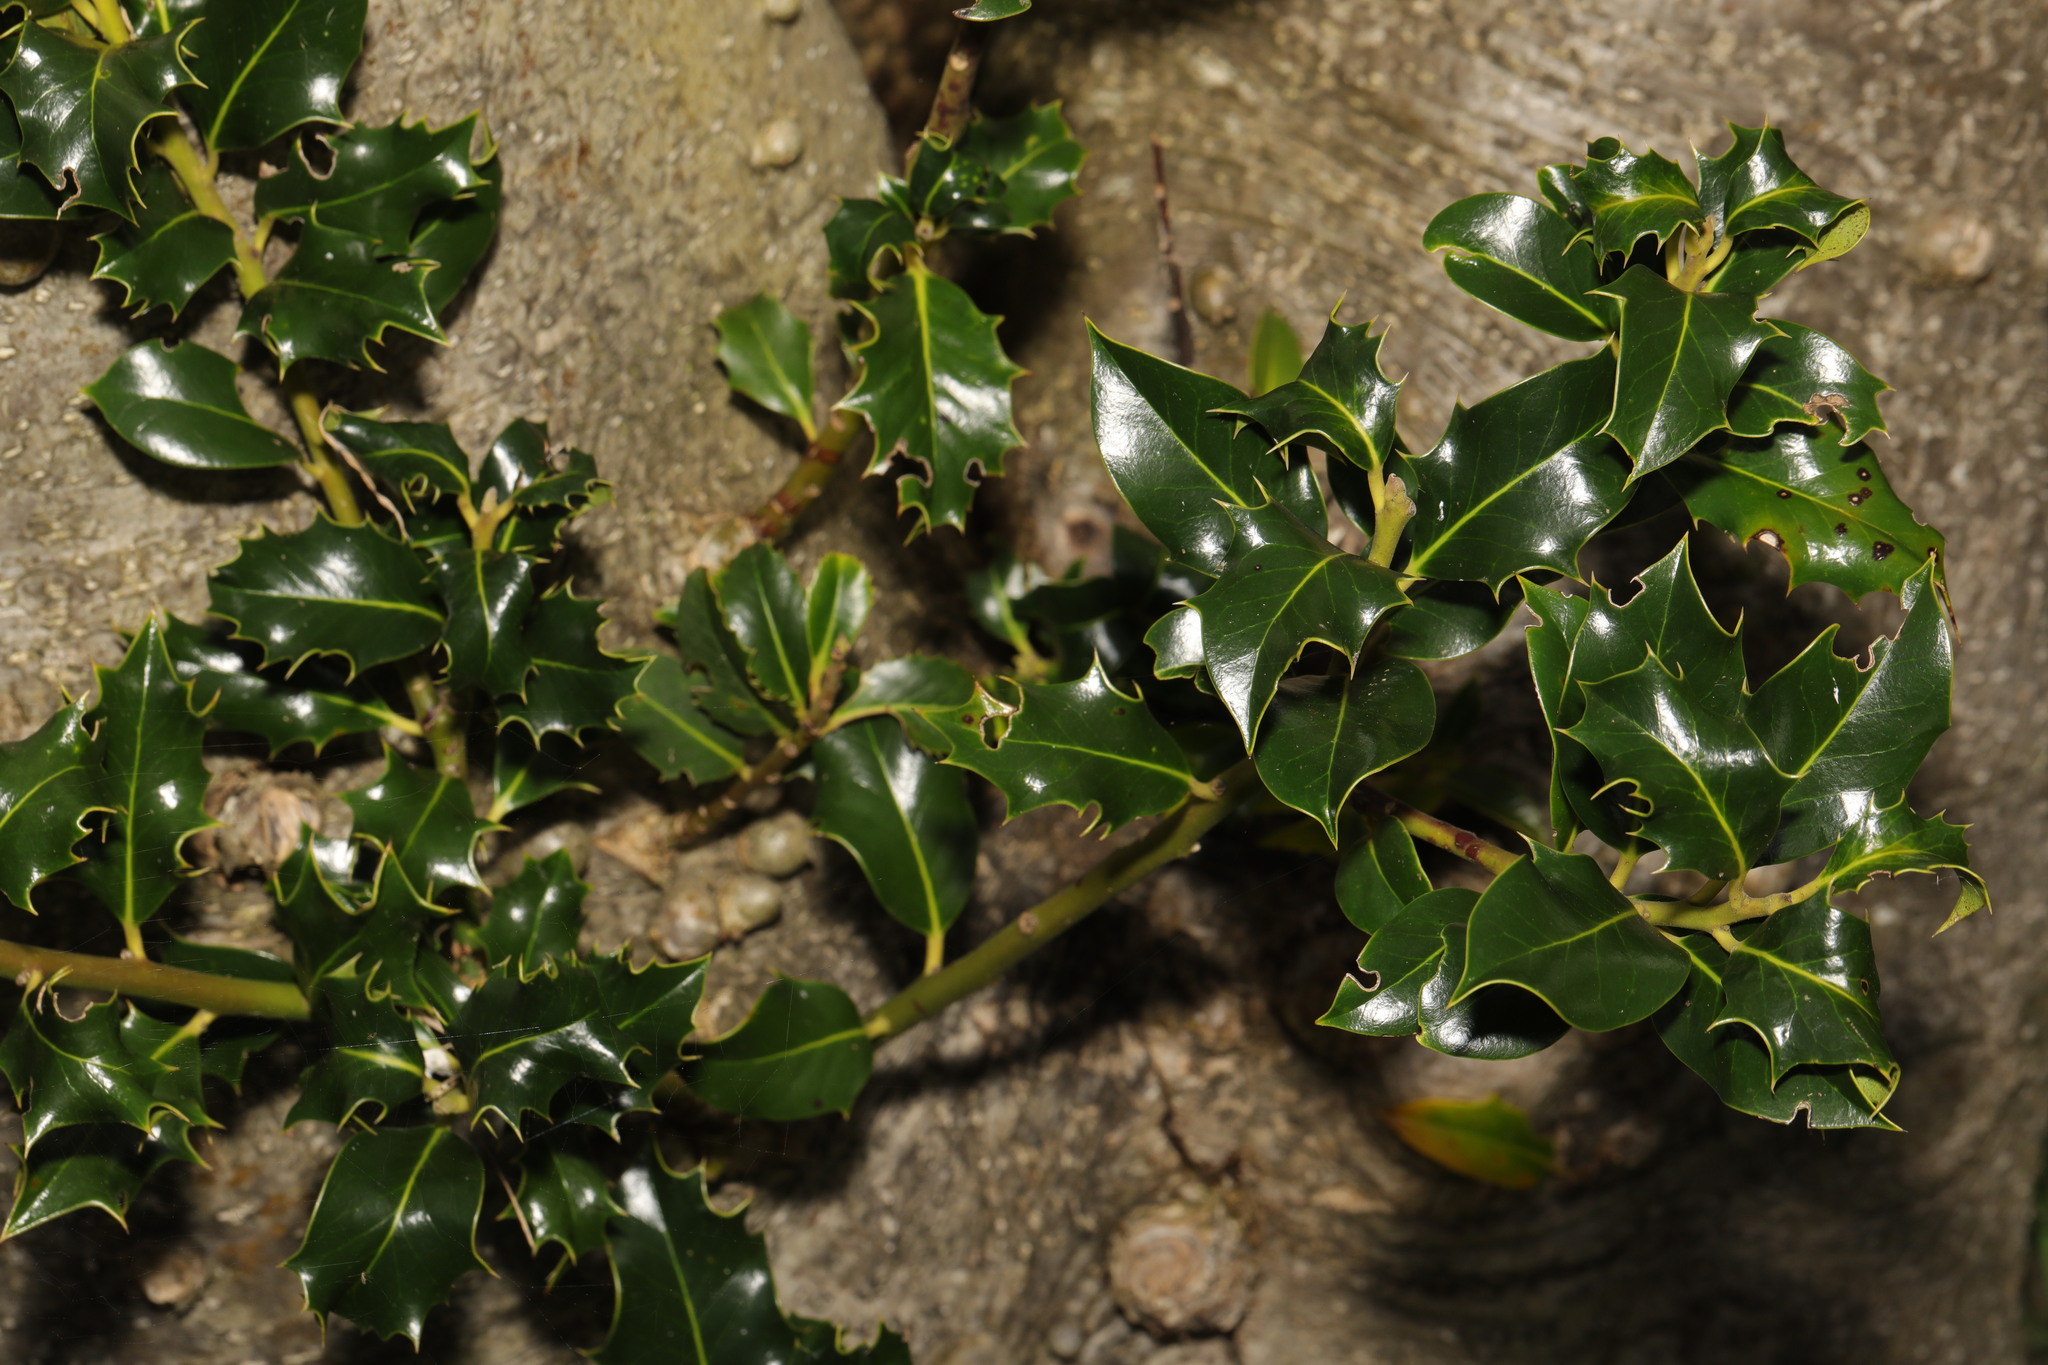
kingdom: Plantae
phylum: Tracheophyta
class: Magnoliopsida
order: Aquifoliales
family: Aquifoliaceae
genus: Ilex
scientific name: Ilex aquifolium
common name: English holly
